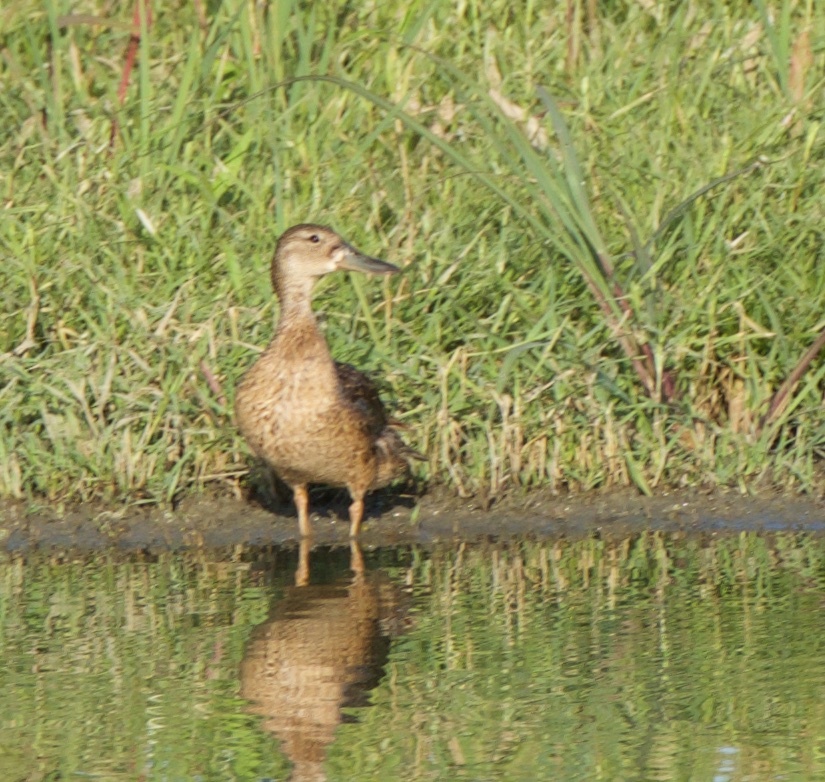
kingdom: Animalia
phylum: Chordata
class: Aves
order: Anseriformes
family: Anatidae
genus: Spatula
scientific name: Spatula clypeata
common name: Northern shoveler
